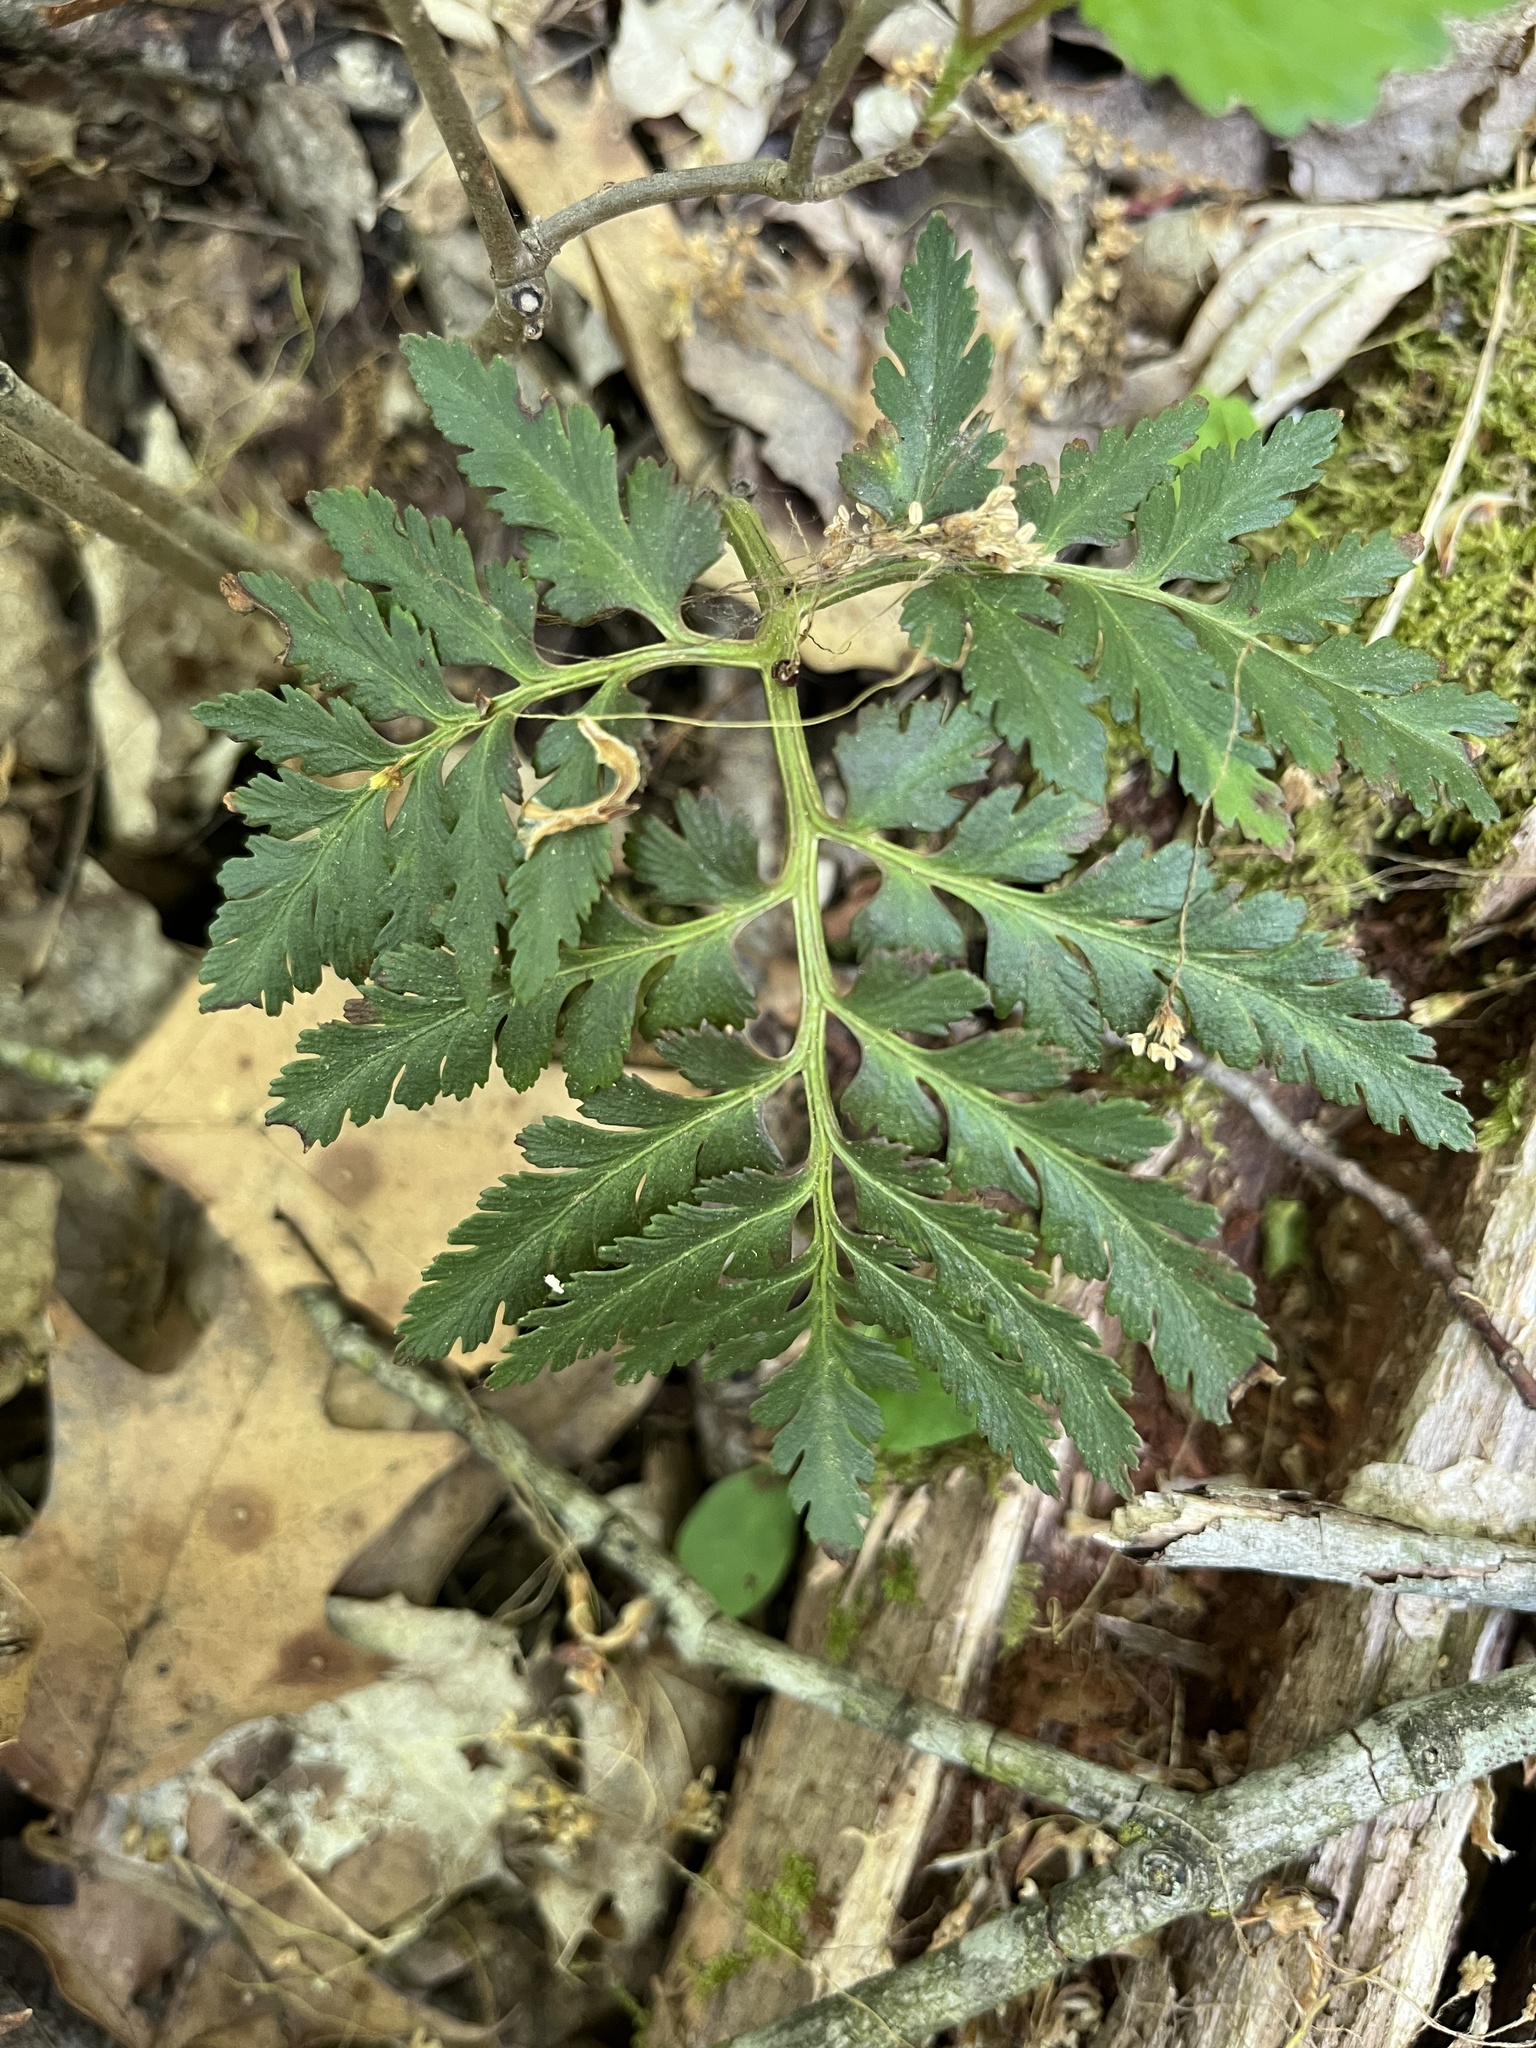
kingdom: Plantae
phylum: Tracheophyta
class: Polypodiopsida
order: Ophioglossales
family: Ophioglossaceae
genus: Sceptridium
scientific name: Sceptridium dissectum
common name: Cut-leaved grapefern
